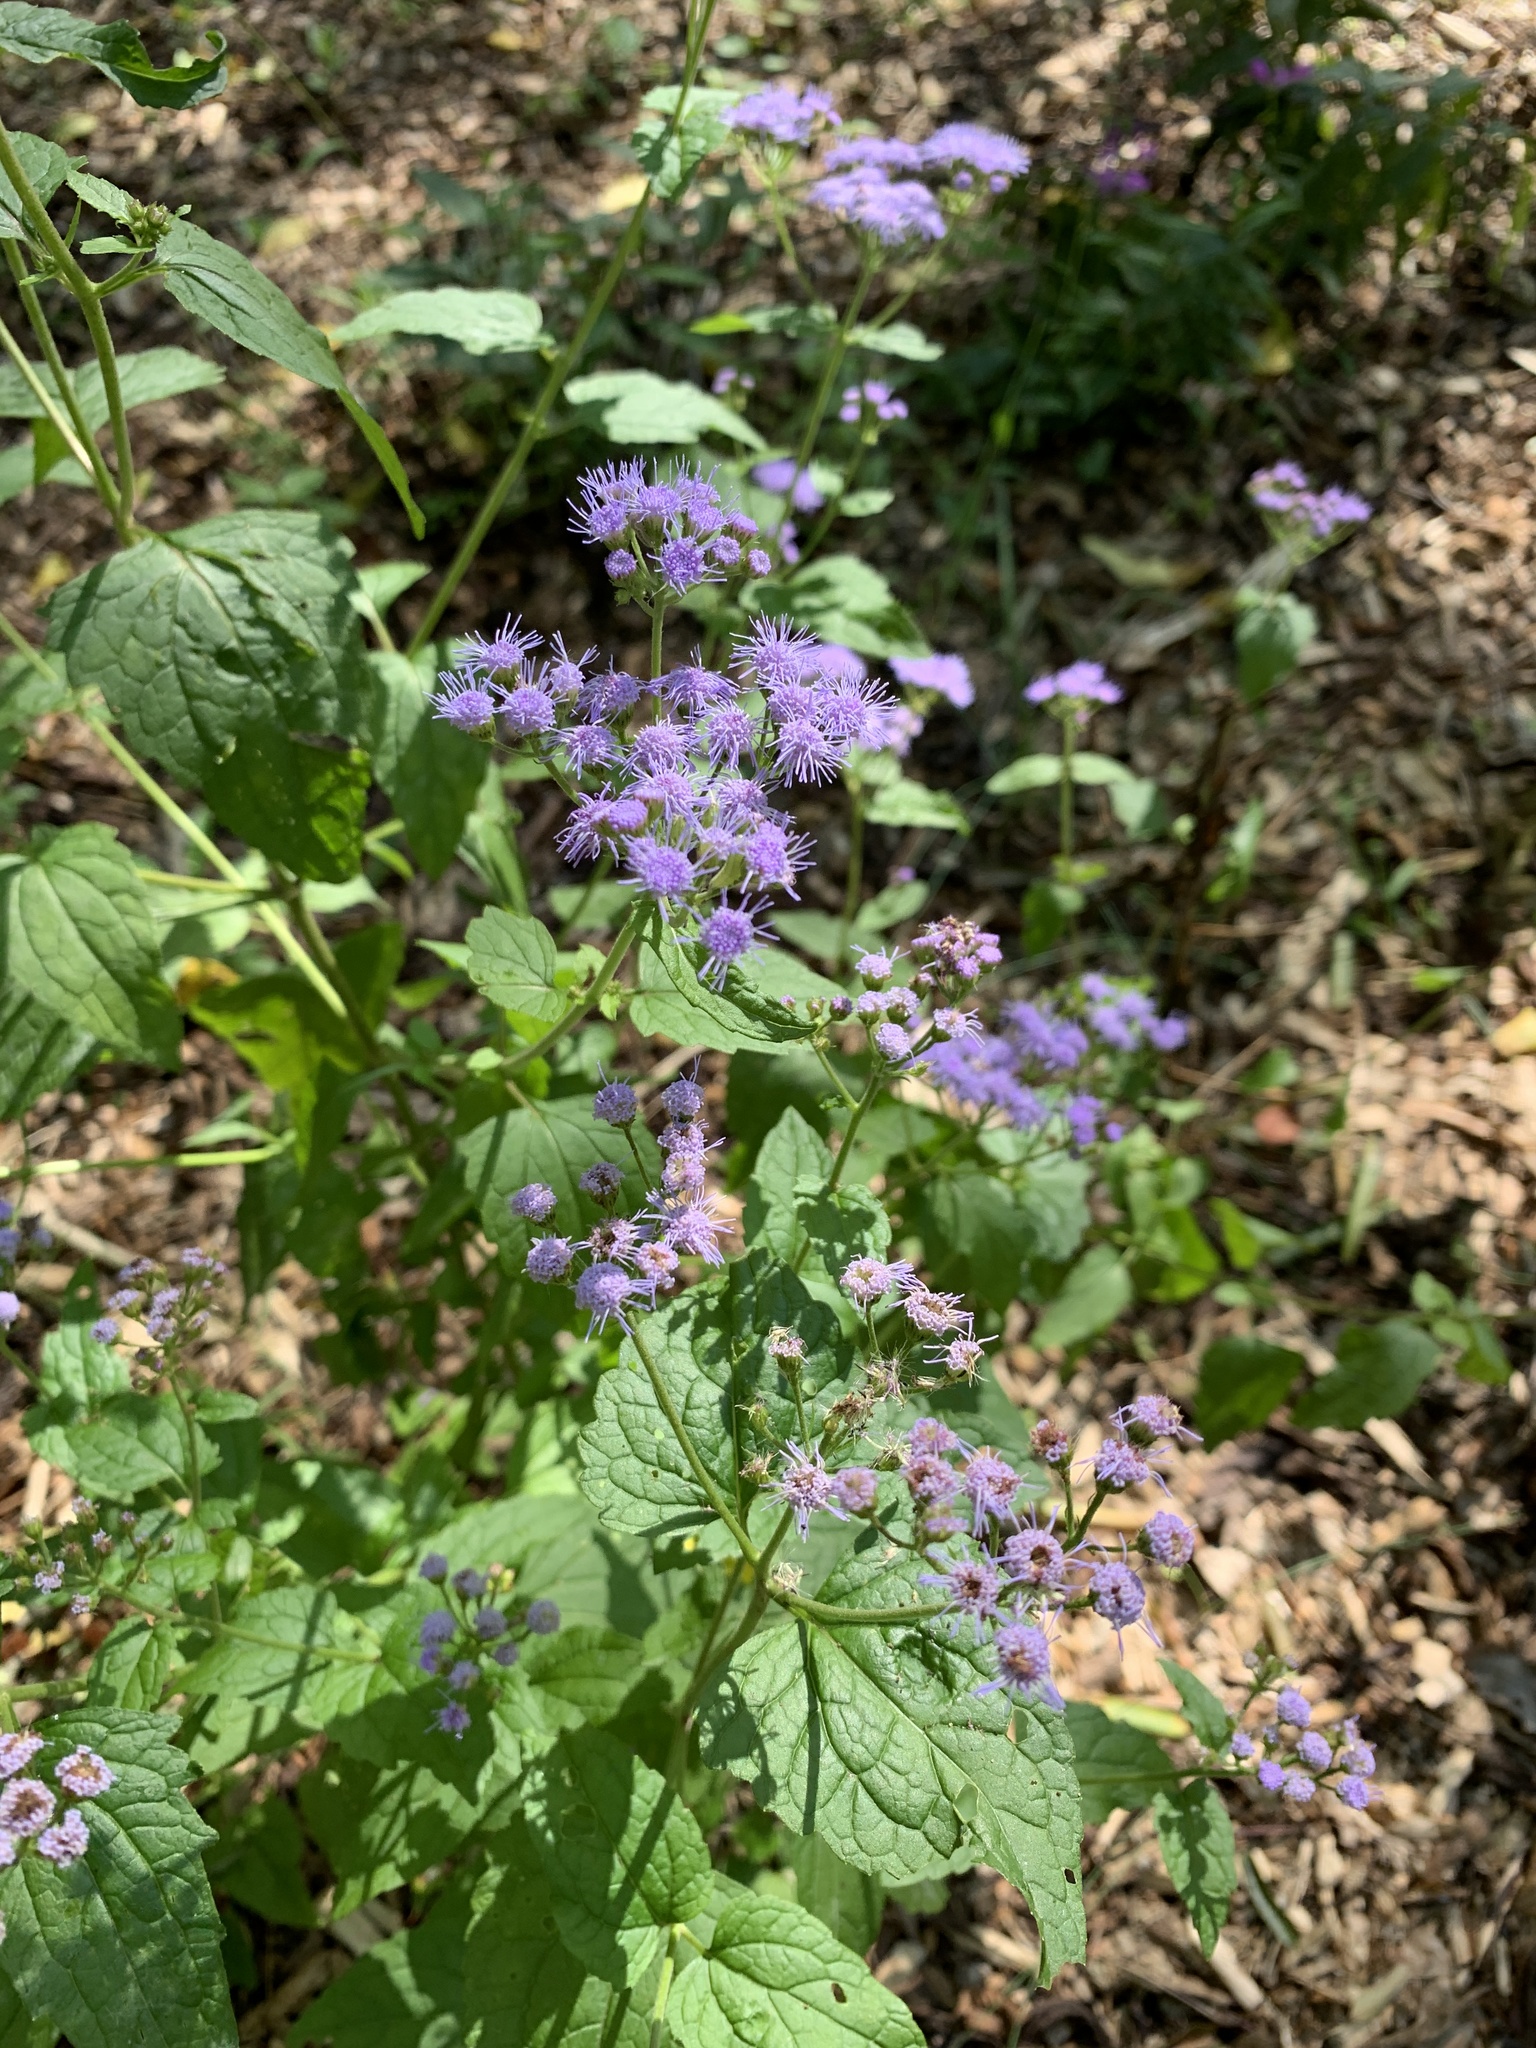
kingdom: Plantae
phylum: Tracheophyta
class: Magnoliopsida
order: Asterales
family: Asteraceae
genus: Conoclinium
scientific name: Conoclinium coelestinum
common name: Blue mistflower
